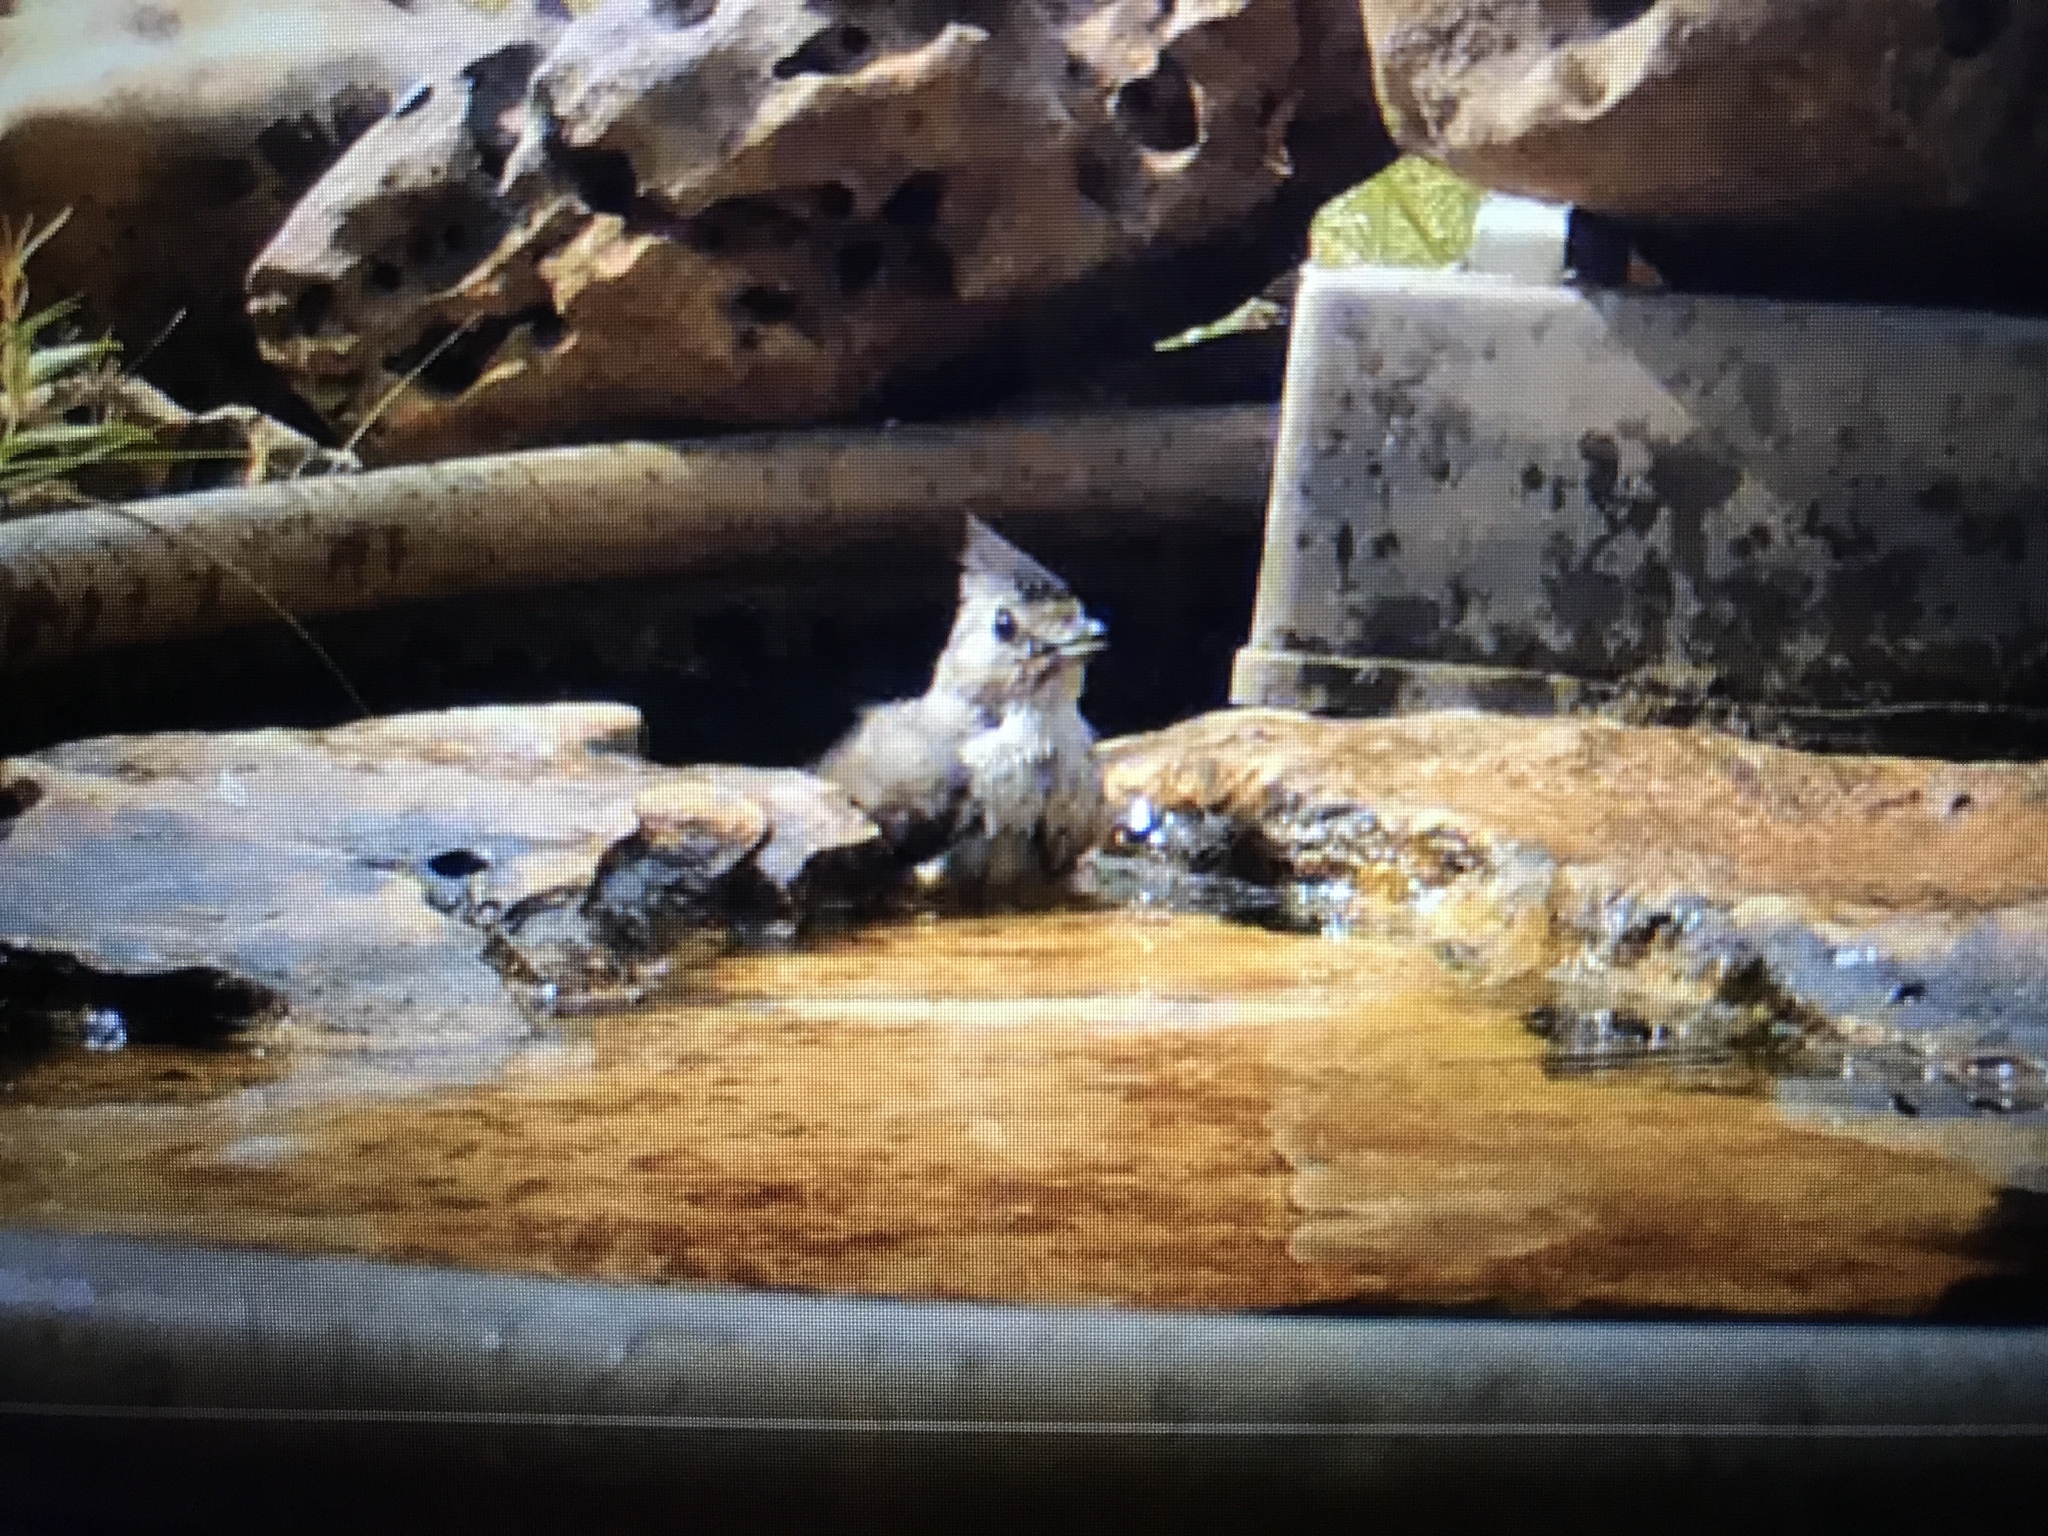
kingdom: Animalia
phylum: Chordata
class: Aves
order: Passeriformes
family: Paridae
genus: Baeolophus
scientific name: Baeolophus atricristatus
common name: Black-crested titmouse
